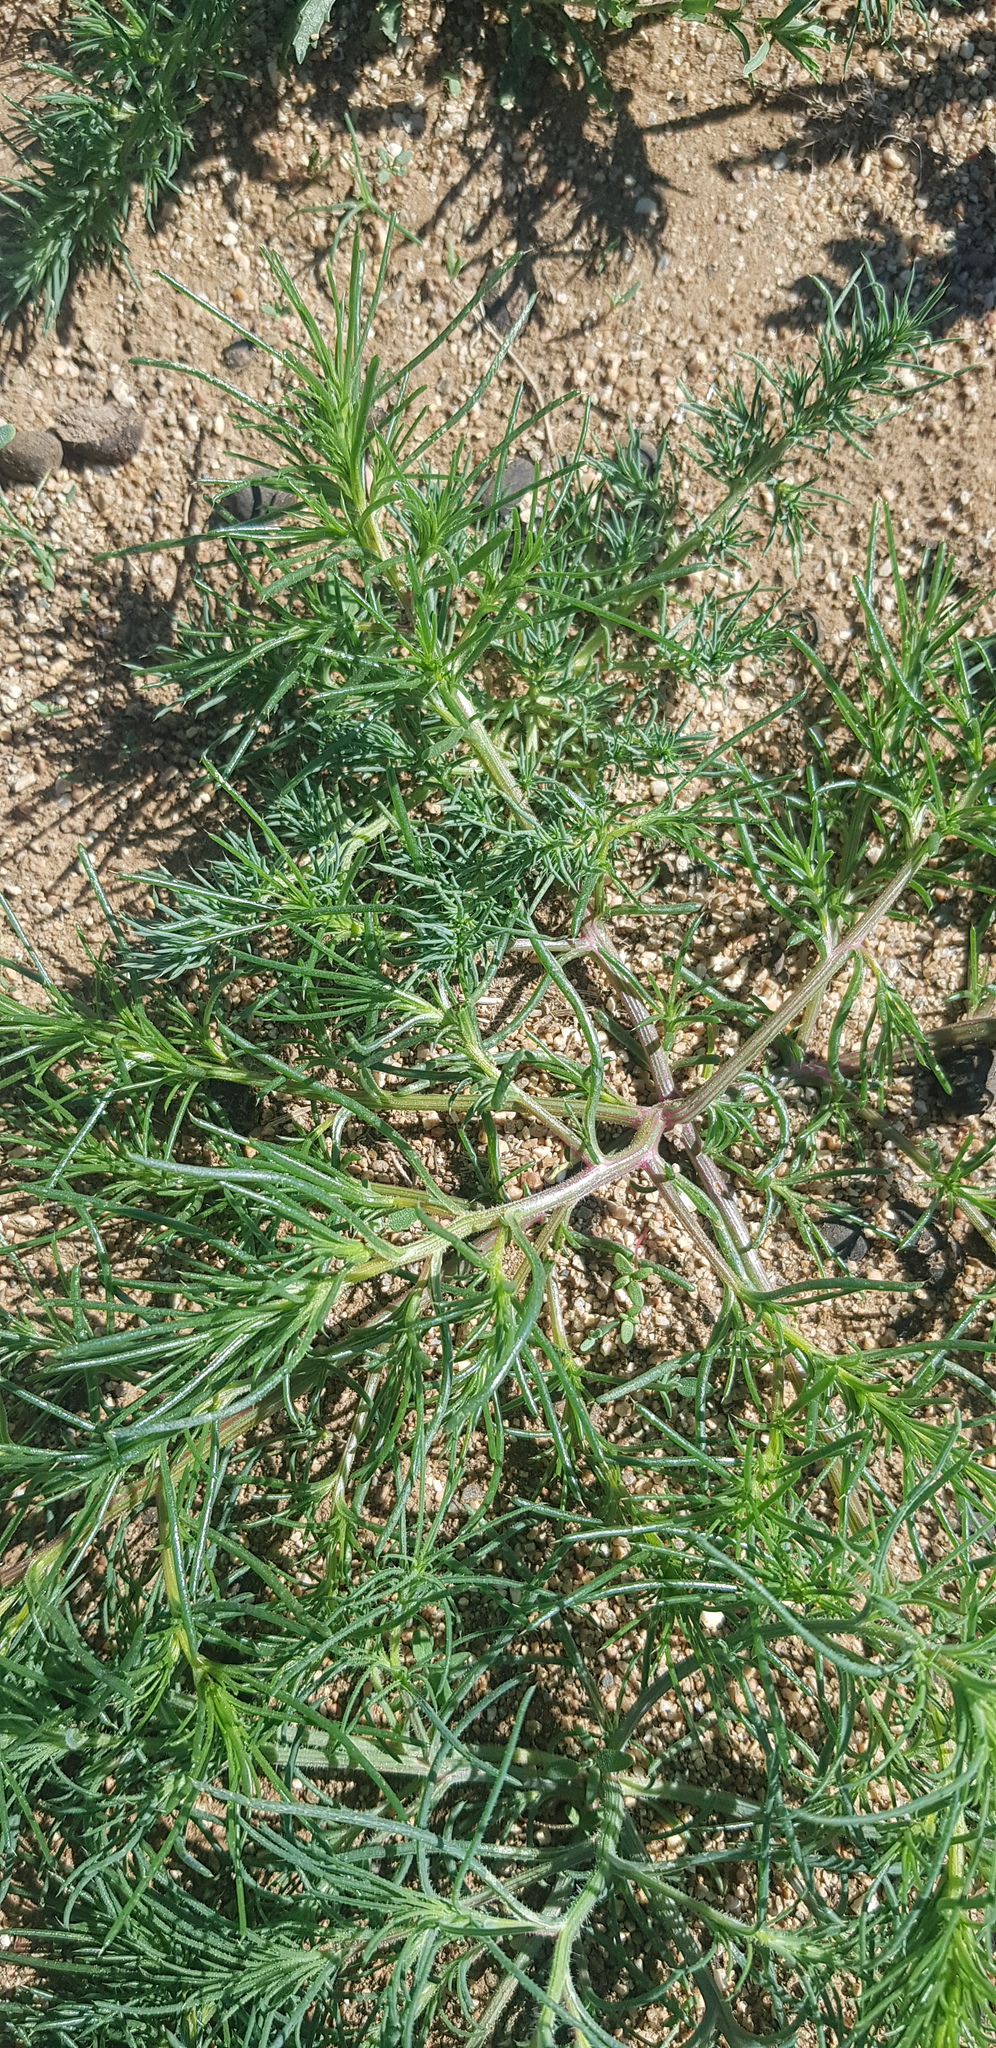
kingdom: Plantae
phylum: Tracheophyta
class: Magnoliopsida
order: Caryophyllales
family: Amaranthaceae
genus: Salsola
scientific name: Salsola collina
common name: Tumbleweed
